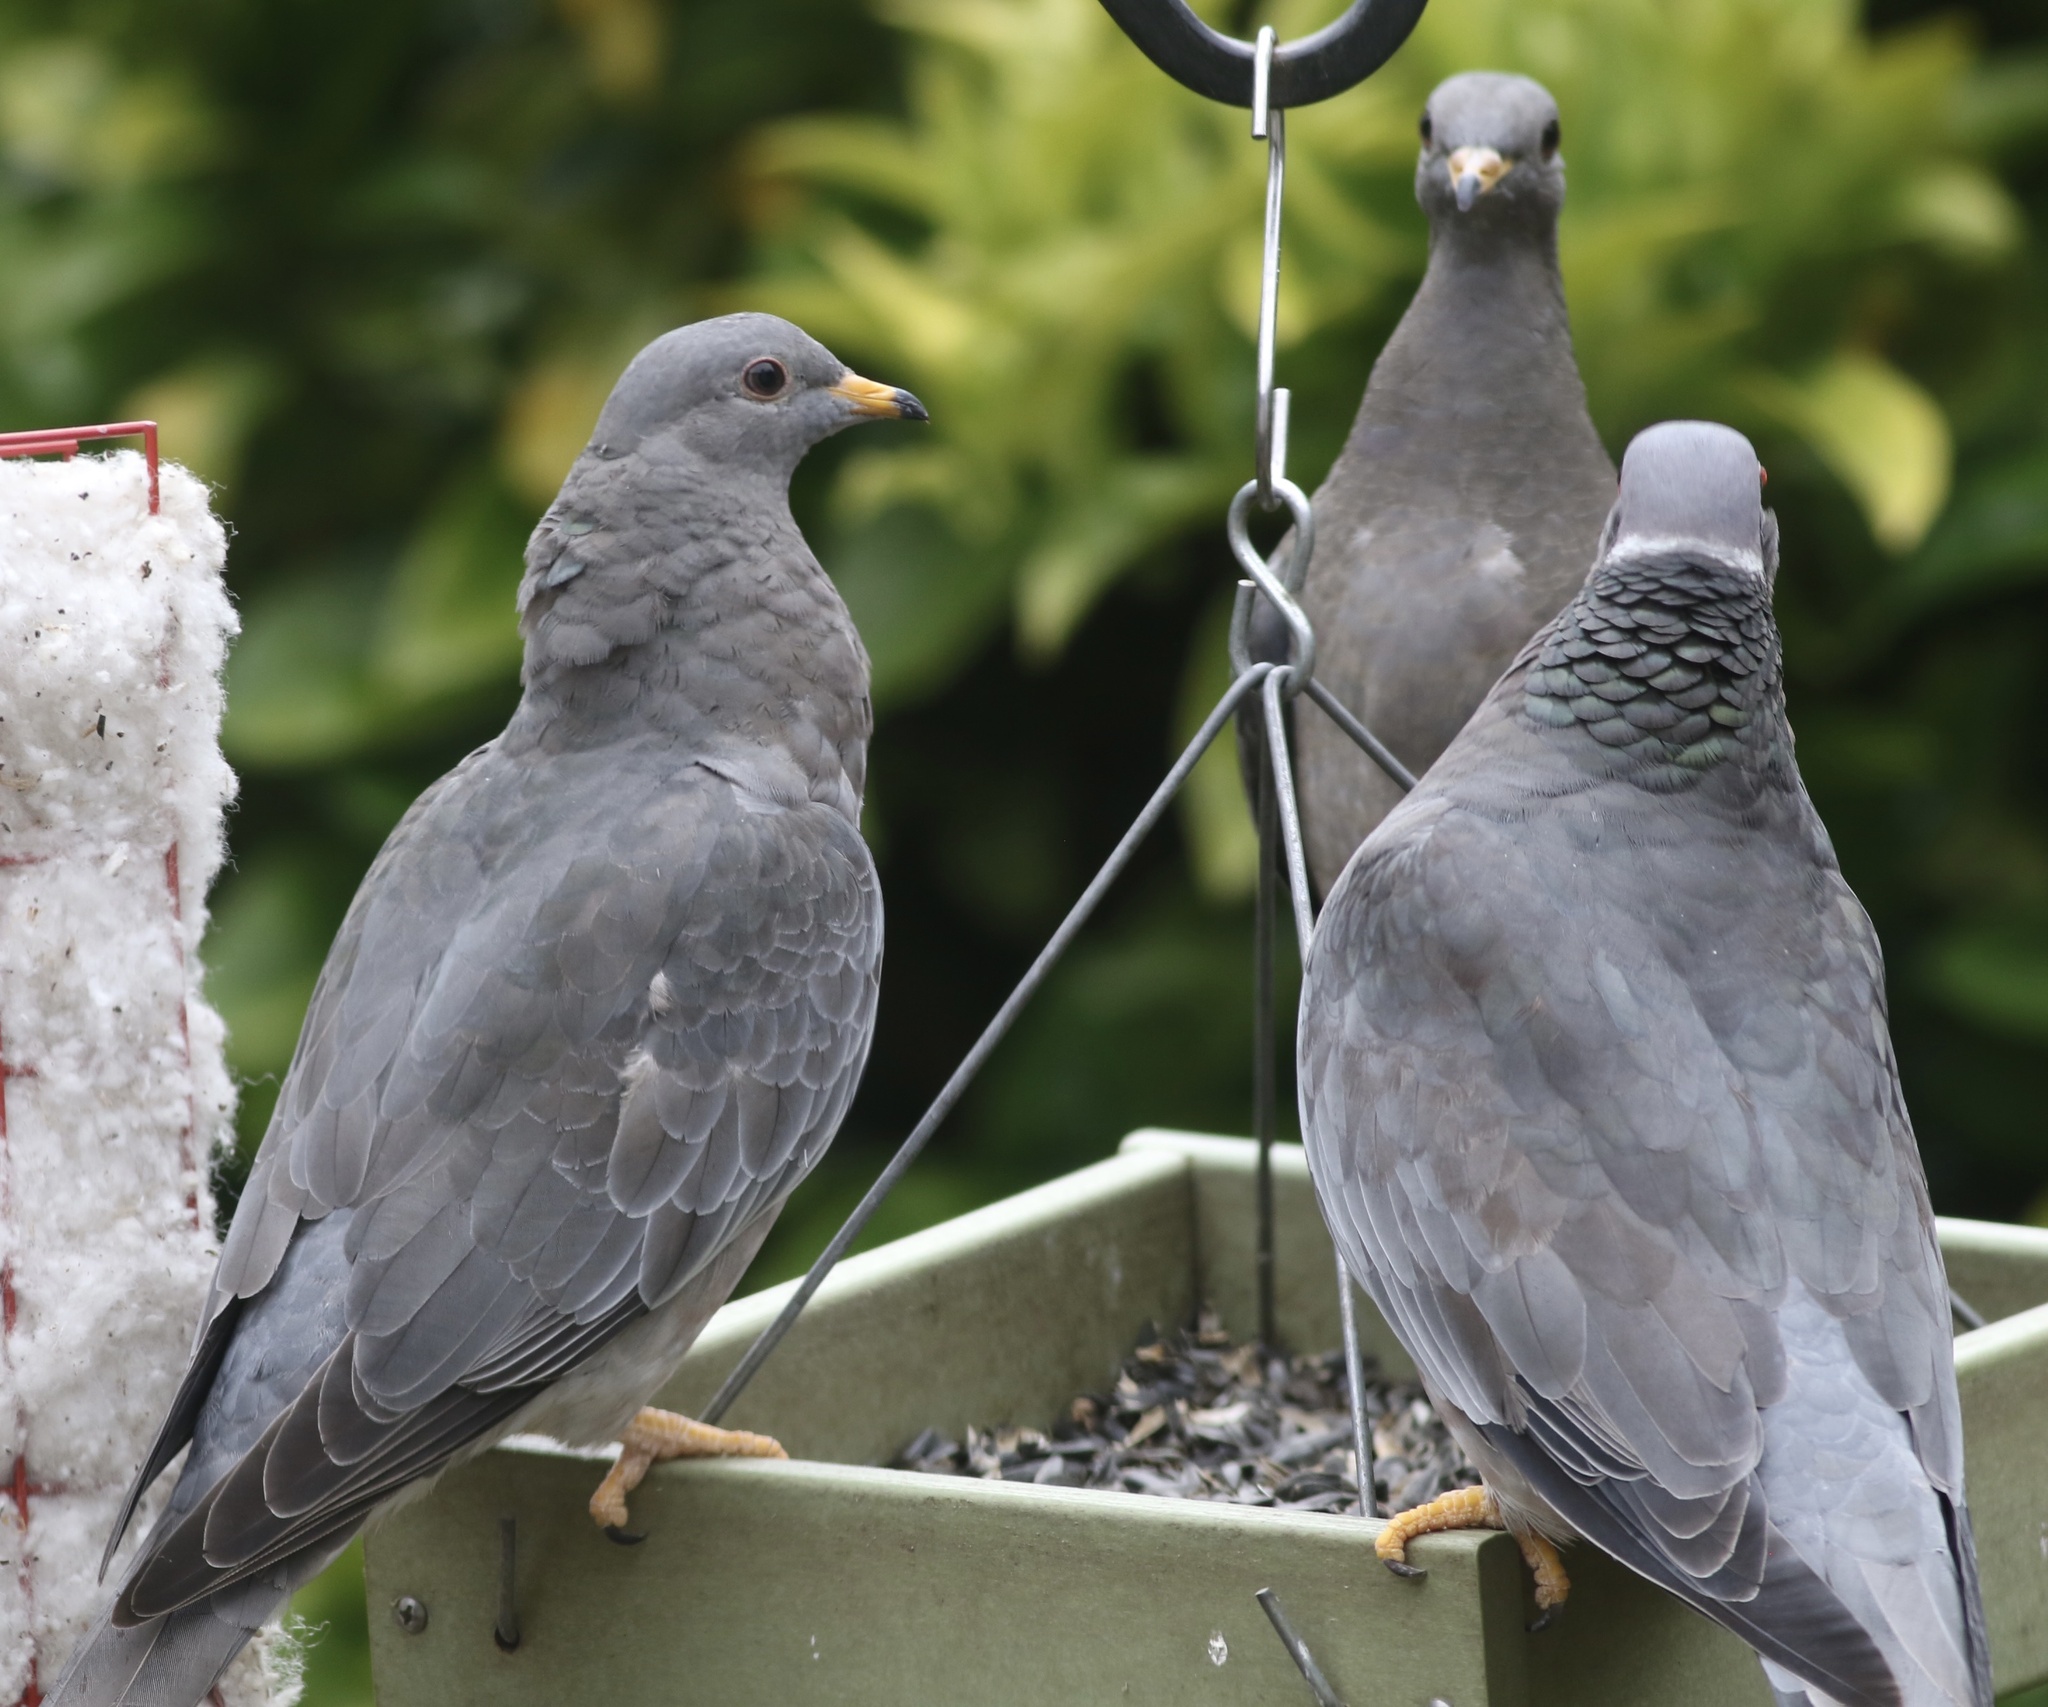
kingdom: Animalia
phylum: Chordata
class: Aves
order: Columbiformes
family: Columbidae
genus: Patagioenas
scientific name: Patagioenas fasciata
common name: Band-tailed pigeon
